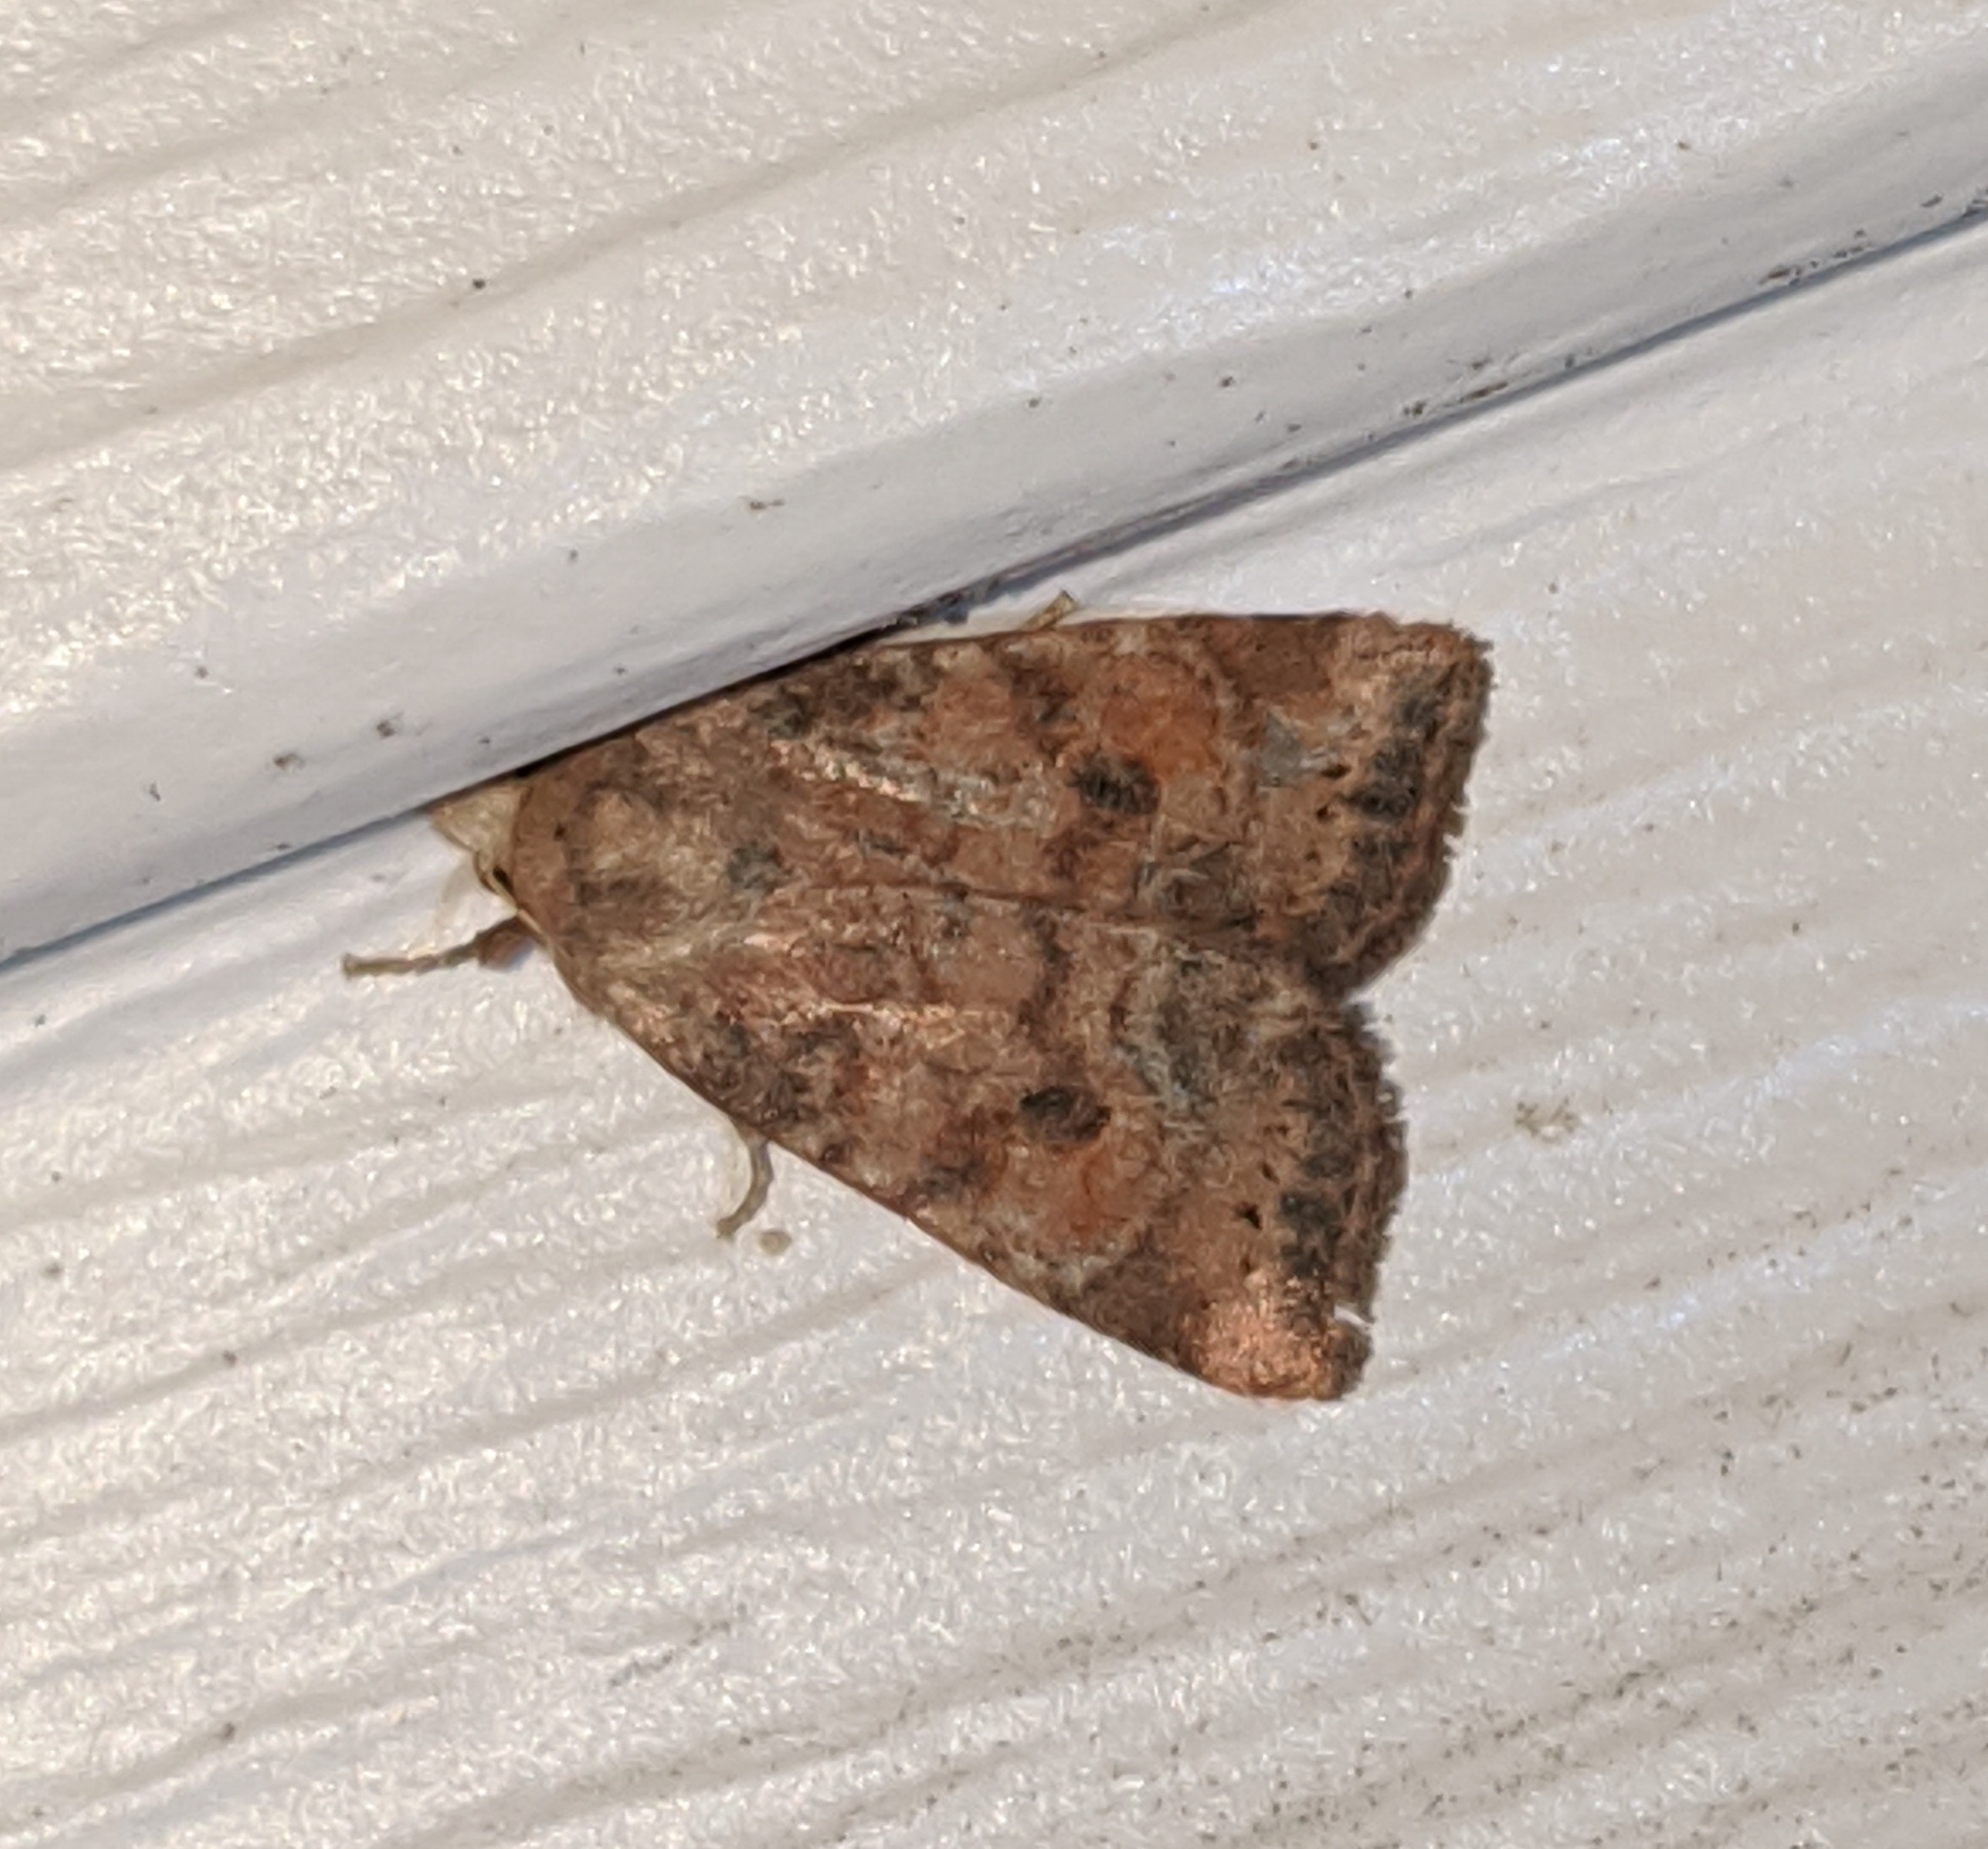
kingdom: Animalia
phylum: Arthropoda
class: Insecta
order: Lepidoptera
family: Noctuidae
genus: Anathix
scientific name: Anathix puta
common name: Puta sallow
